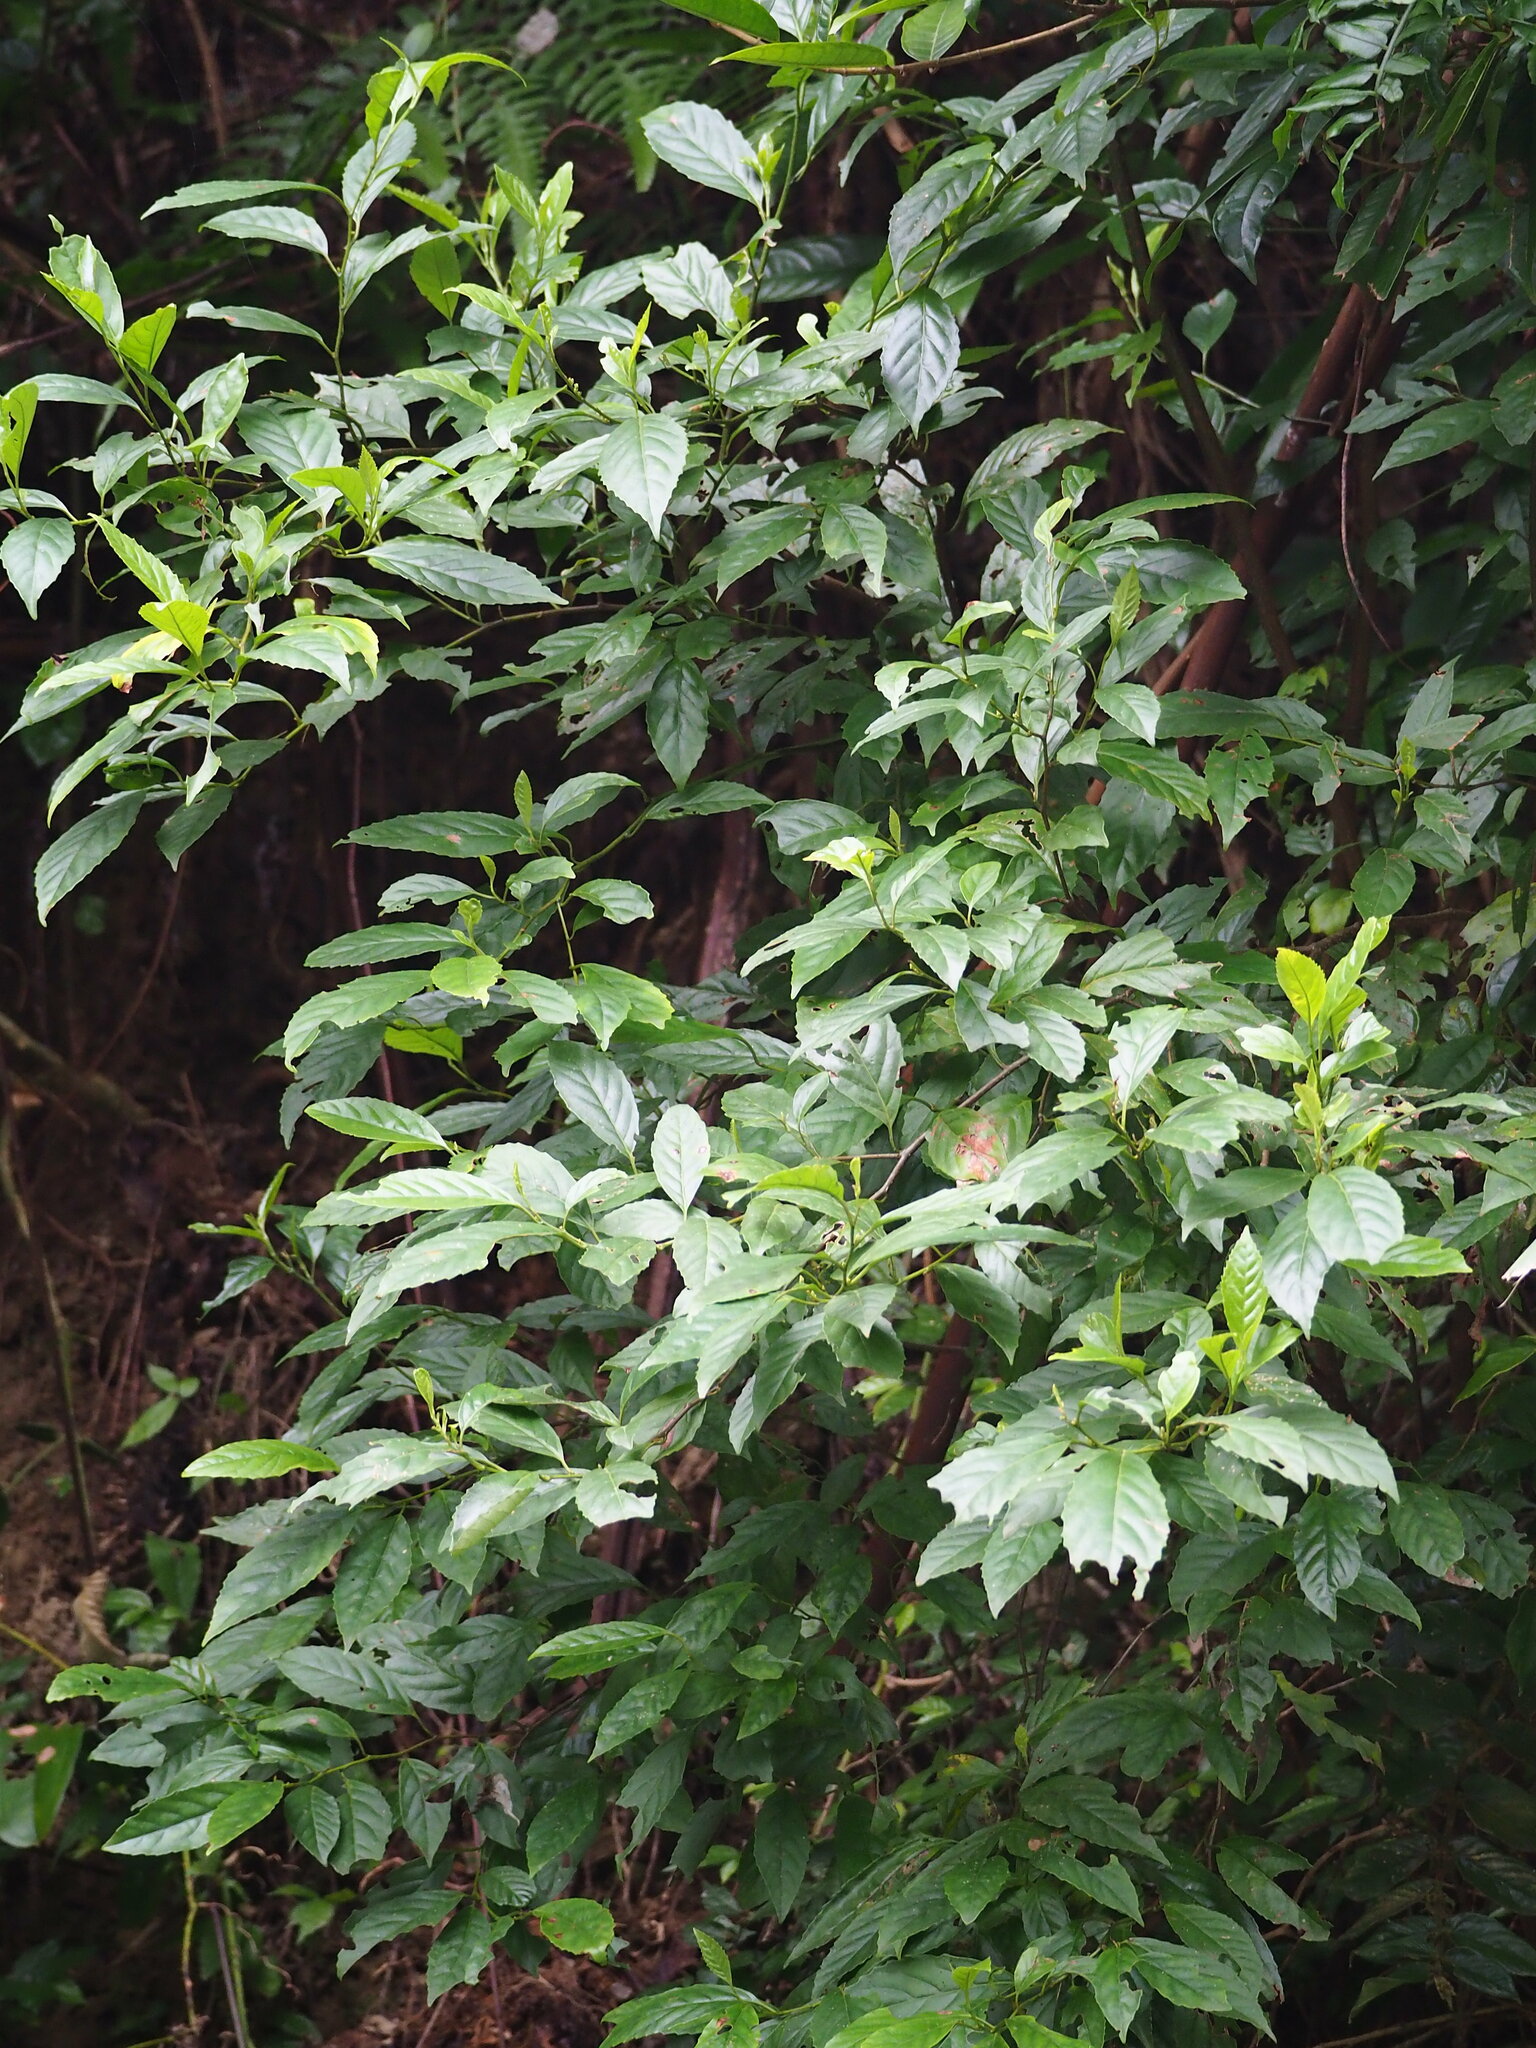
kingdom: Plantae
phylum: Tracheophyta
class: Magnoliopsida
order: Ericales
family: Primulaceae
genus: Maesa
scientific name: Maesa perlaria
